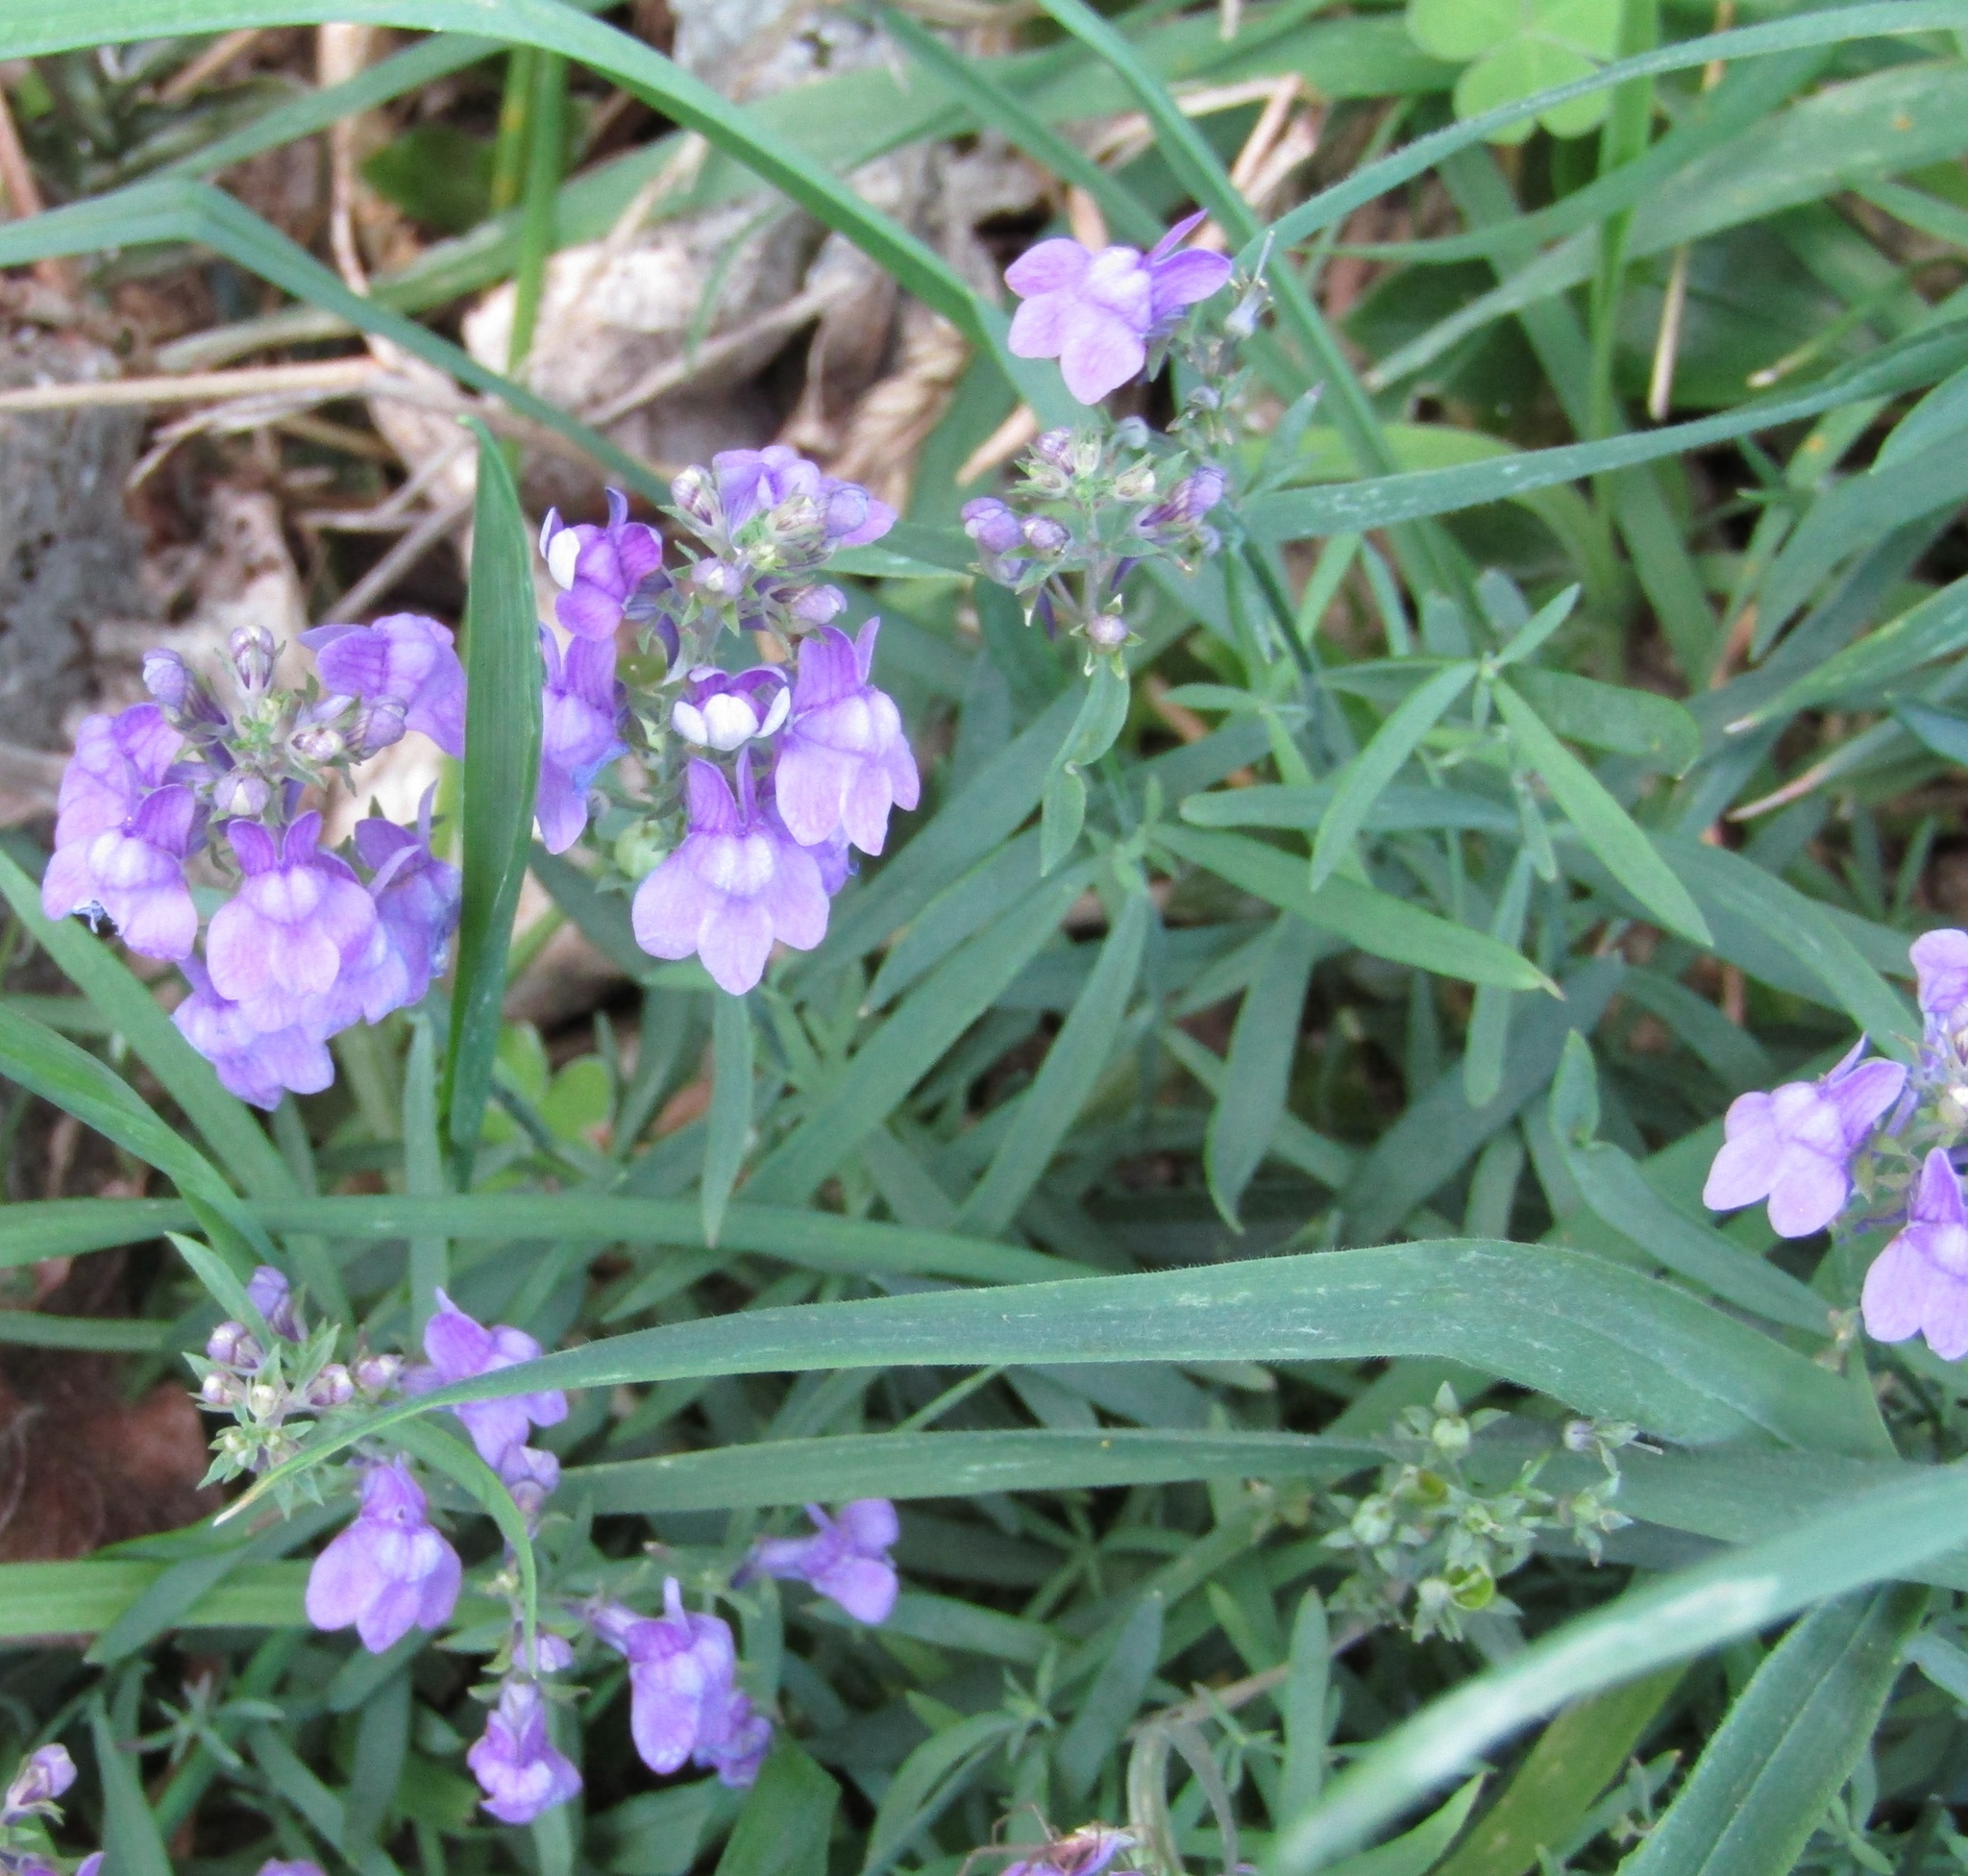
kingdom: Plantae
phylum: Tracheophyta
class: Magnoliopsida
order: Lamiales
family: Plantaginaceae
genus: Linaria
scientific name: Linaria purpurea
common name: Purple toadflax
